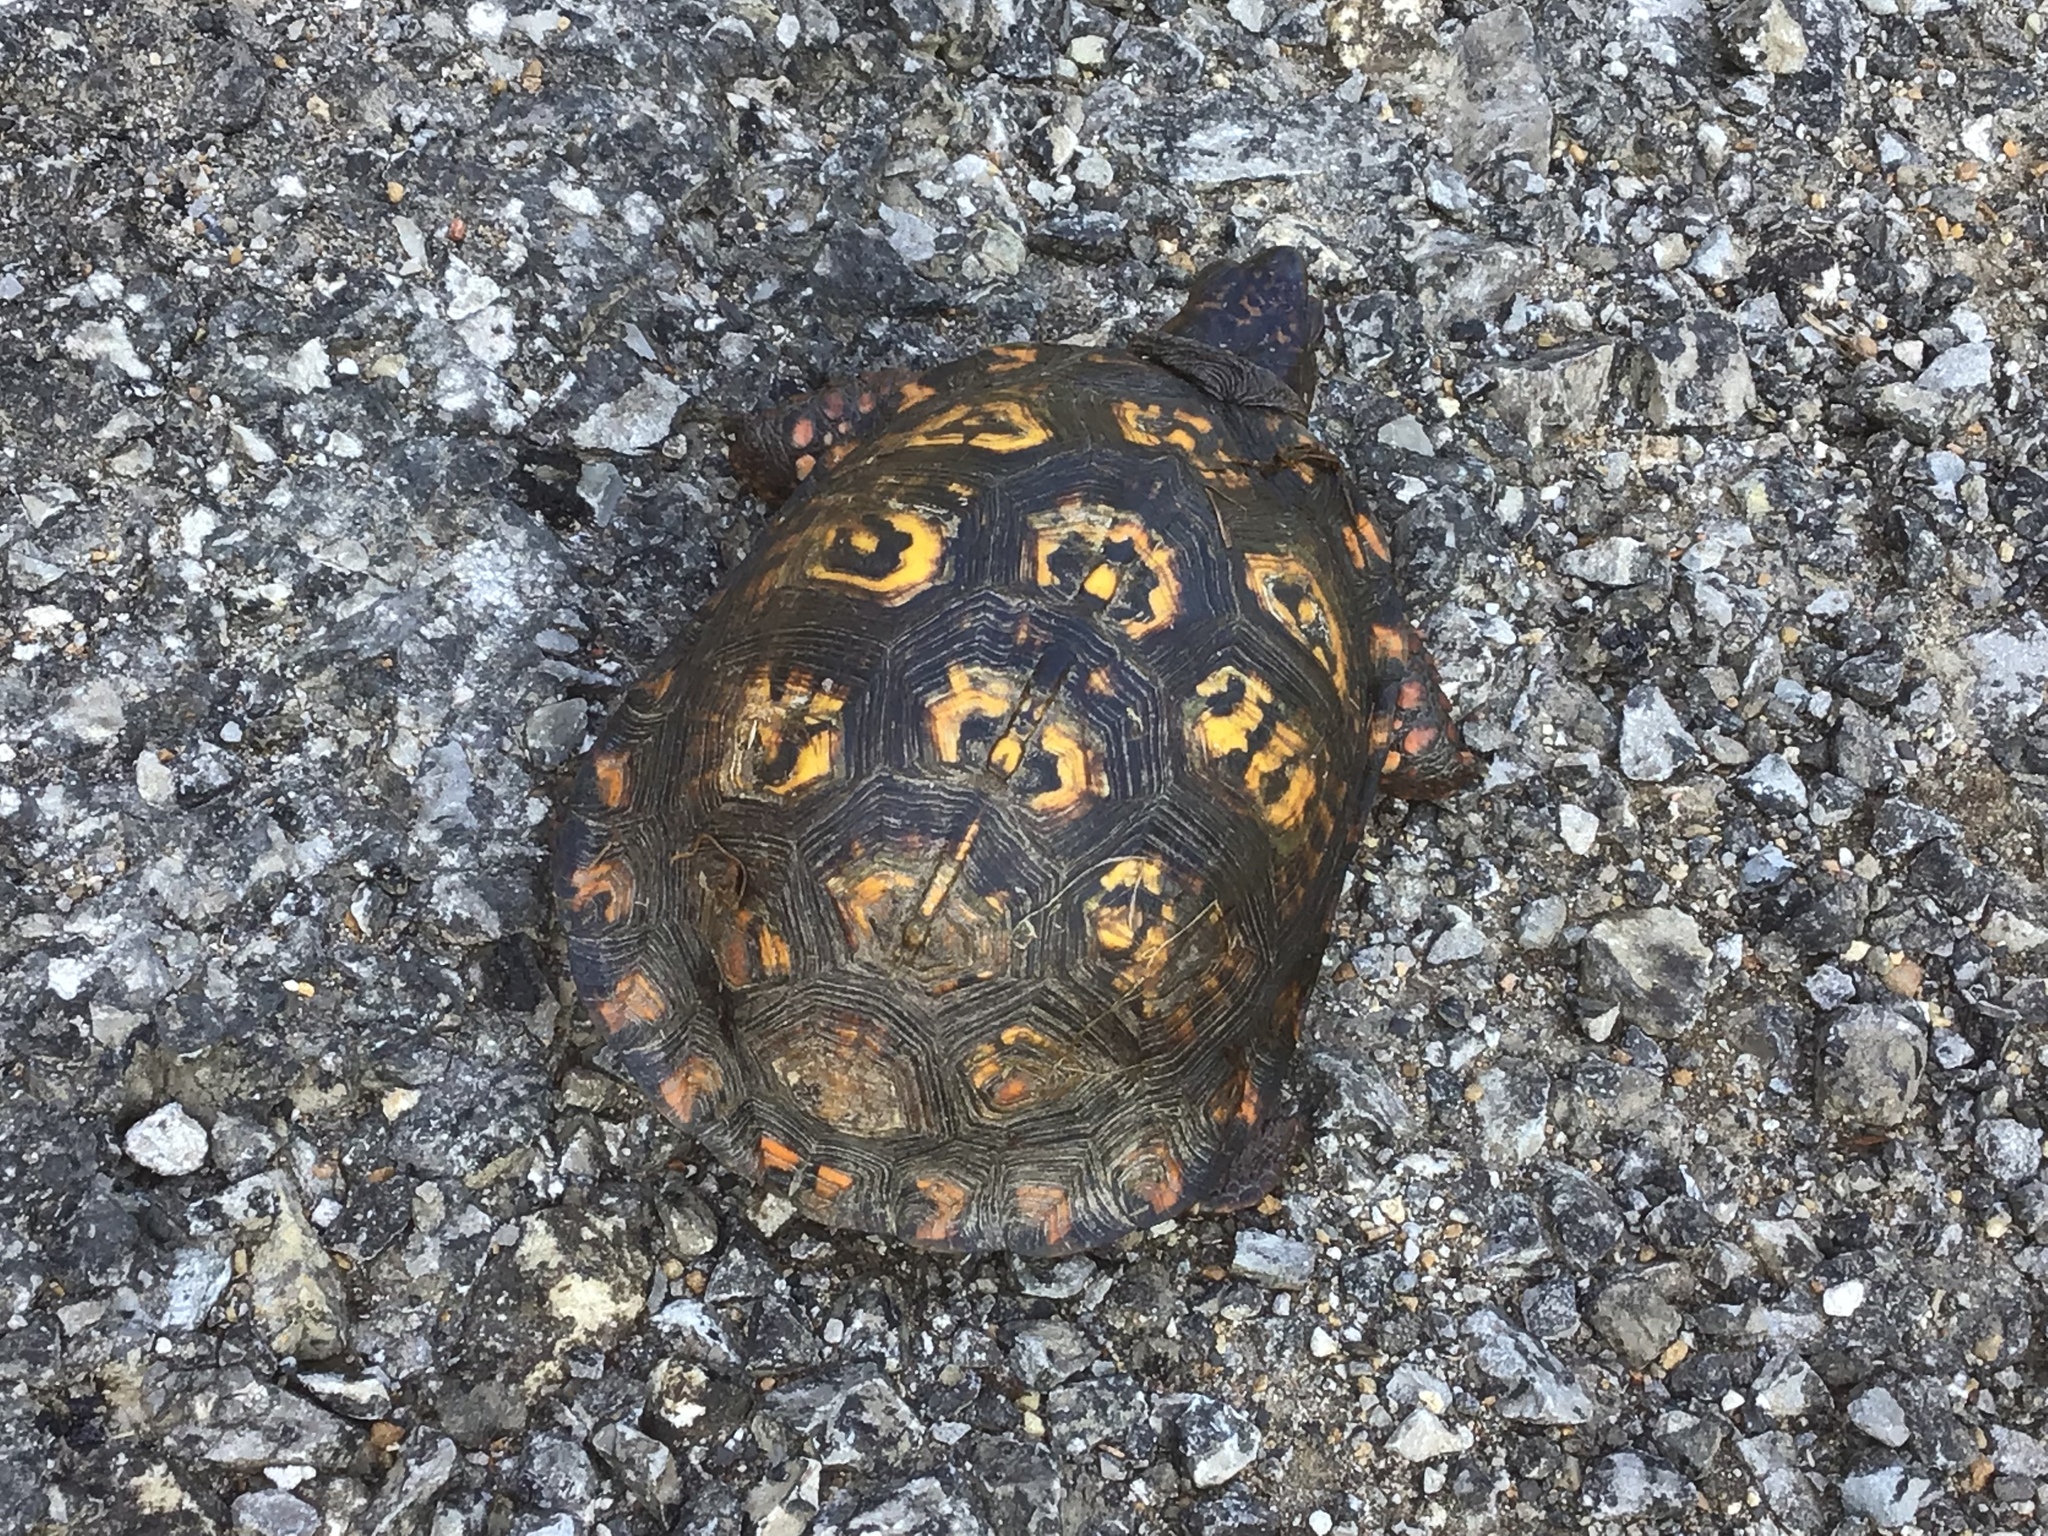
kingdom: Animalia
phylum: Chordata
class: Testudines
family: Emydidae
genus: Terrapene
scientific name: Terrapene carolina
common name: Common box turtle
